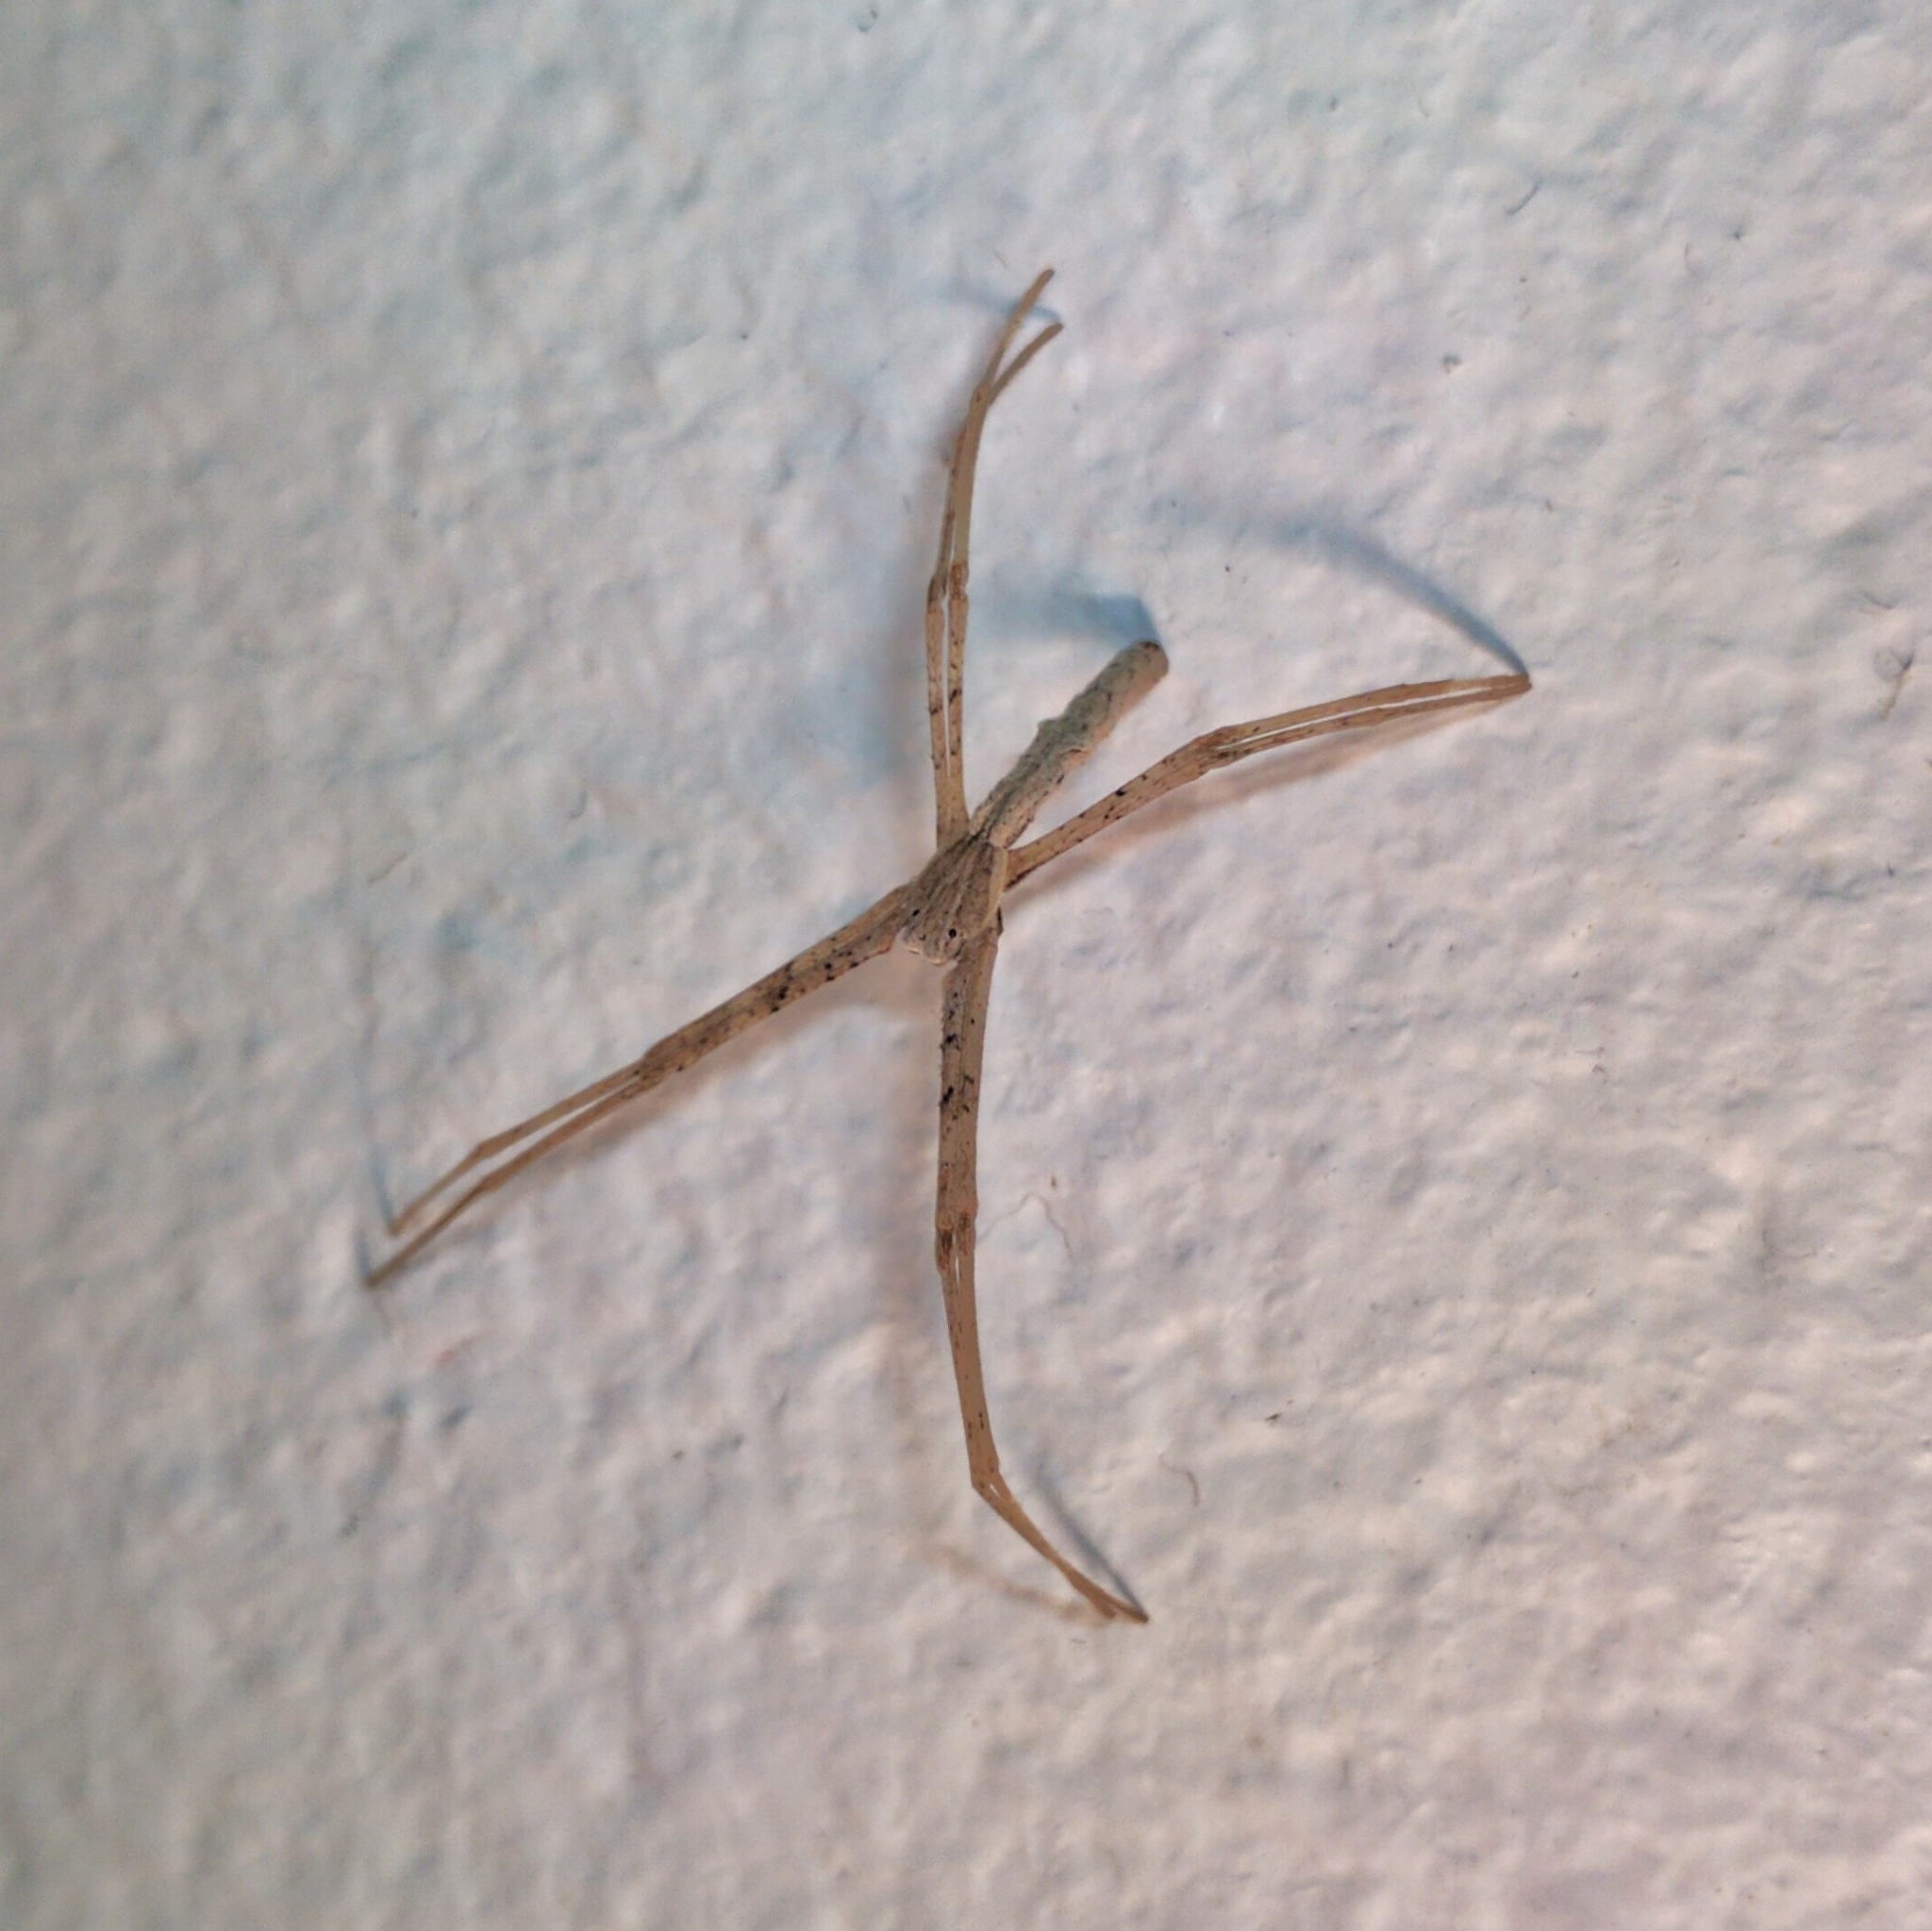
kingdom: Animalia
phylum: Arthropoda
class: Arachnida
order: Araneae
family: Deinopidae
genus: Deinopis
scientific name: Deinopis subrufa
